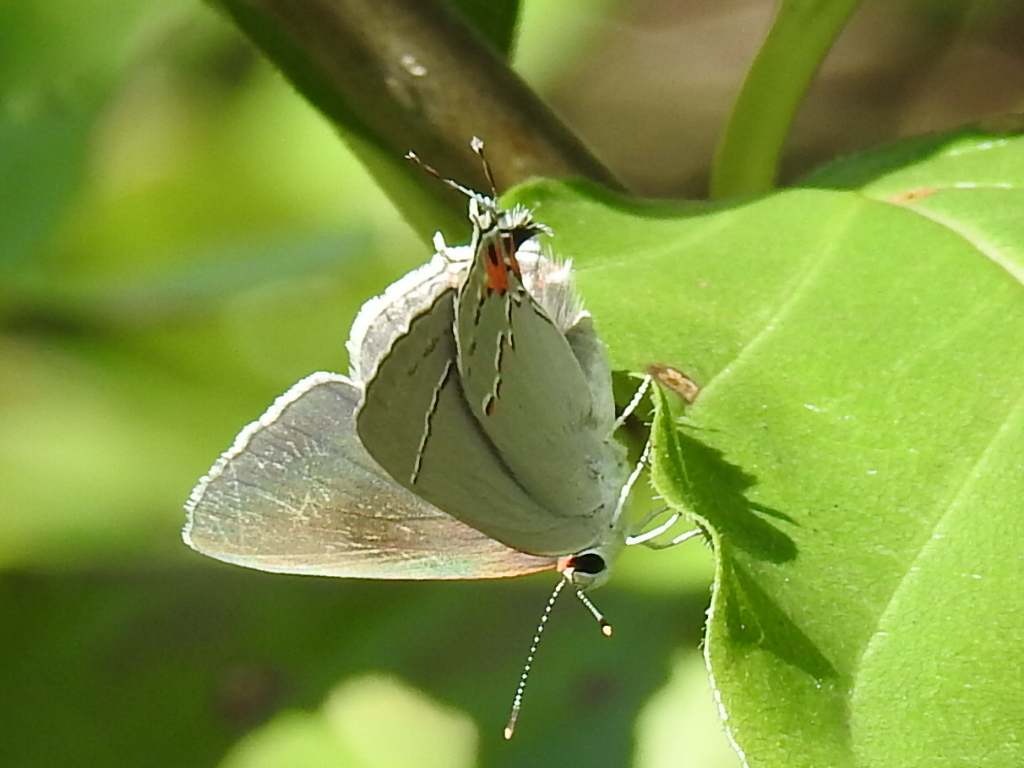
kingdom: Animalia
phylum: Arthropoda
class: Insecta
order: Lepidoptera
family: Lycaenidae
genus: Strymon
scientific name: Strymon melinus
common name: Gray hairstreak
